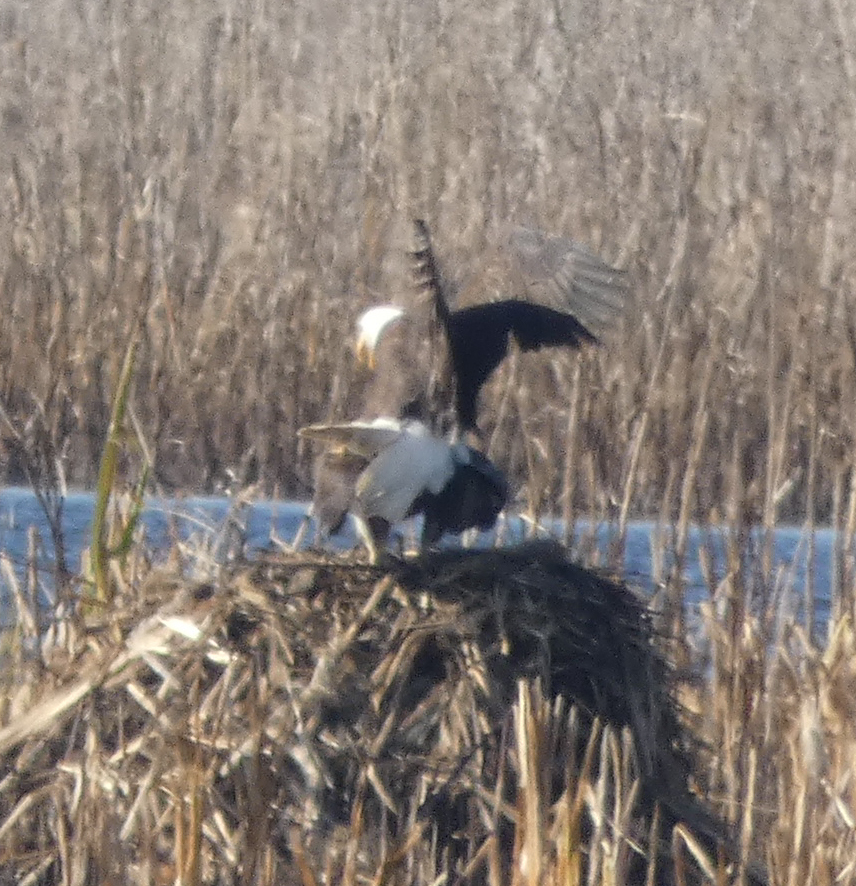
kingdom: Animalia
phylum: Chordata
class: Aves
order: Accipitriformes
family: Accipitridae
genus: Haliaeetus
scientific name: Haliaeetus leucocephalus
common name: Bald eagle
